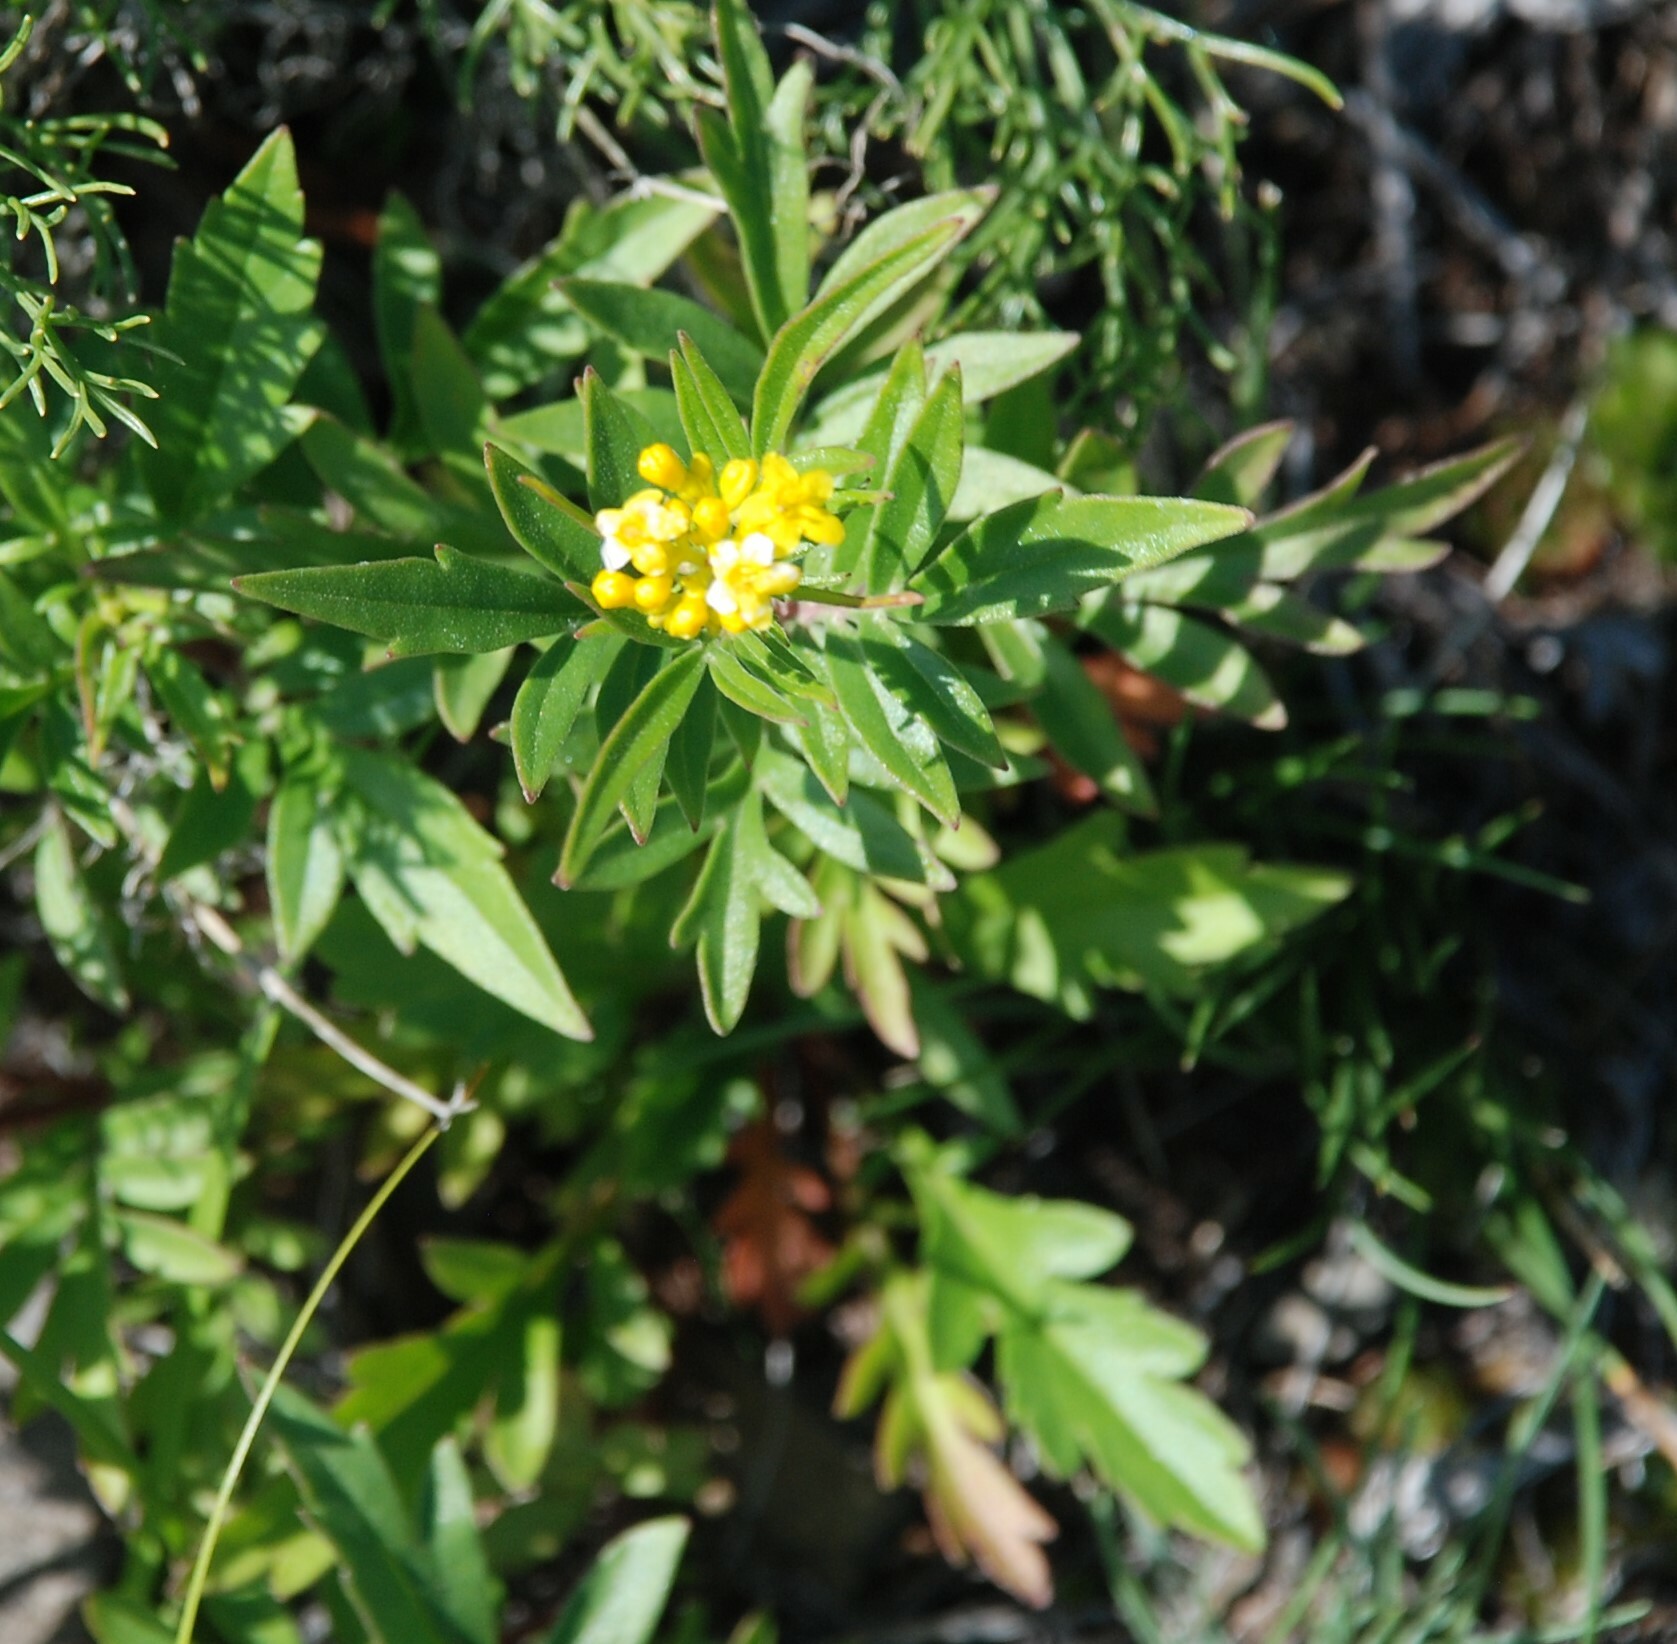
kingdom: Plantae
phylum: Tracheophyta
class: Magnoliopsida
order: Dipsacales
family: Caprifoliaceae
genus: Patrinia
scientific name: Patrinia rupestris
